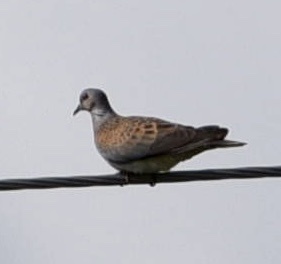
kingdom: Animalia
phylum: Chordata
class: Aves
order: Columbiformes
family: Columbidae
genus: Streptopelia
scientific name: Streptopelia turtur
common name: European turtle dove
